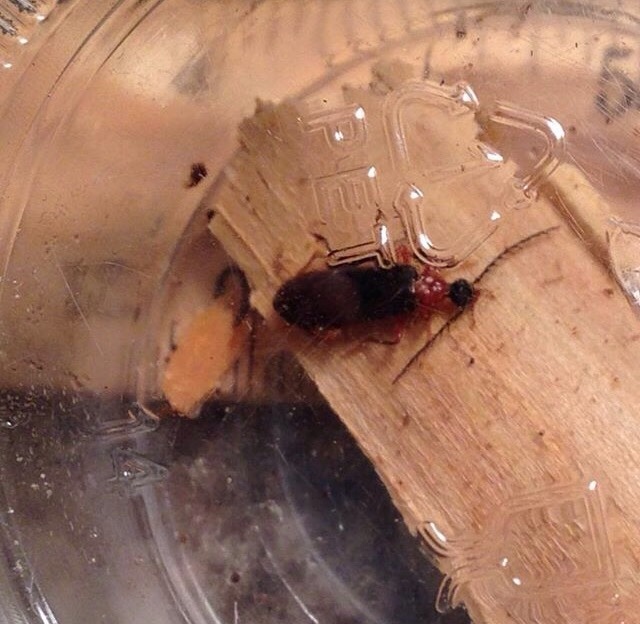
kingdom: Animalia
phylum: Arthropoda
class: Insecta
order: Coleoptera
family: Pyrochroidae
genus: Dendroides
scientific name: Dendroides canadensis
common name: Canada fire-colored beetle
